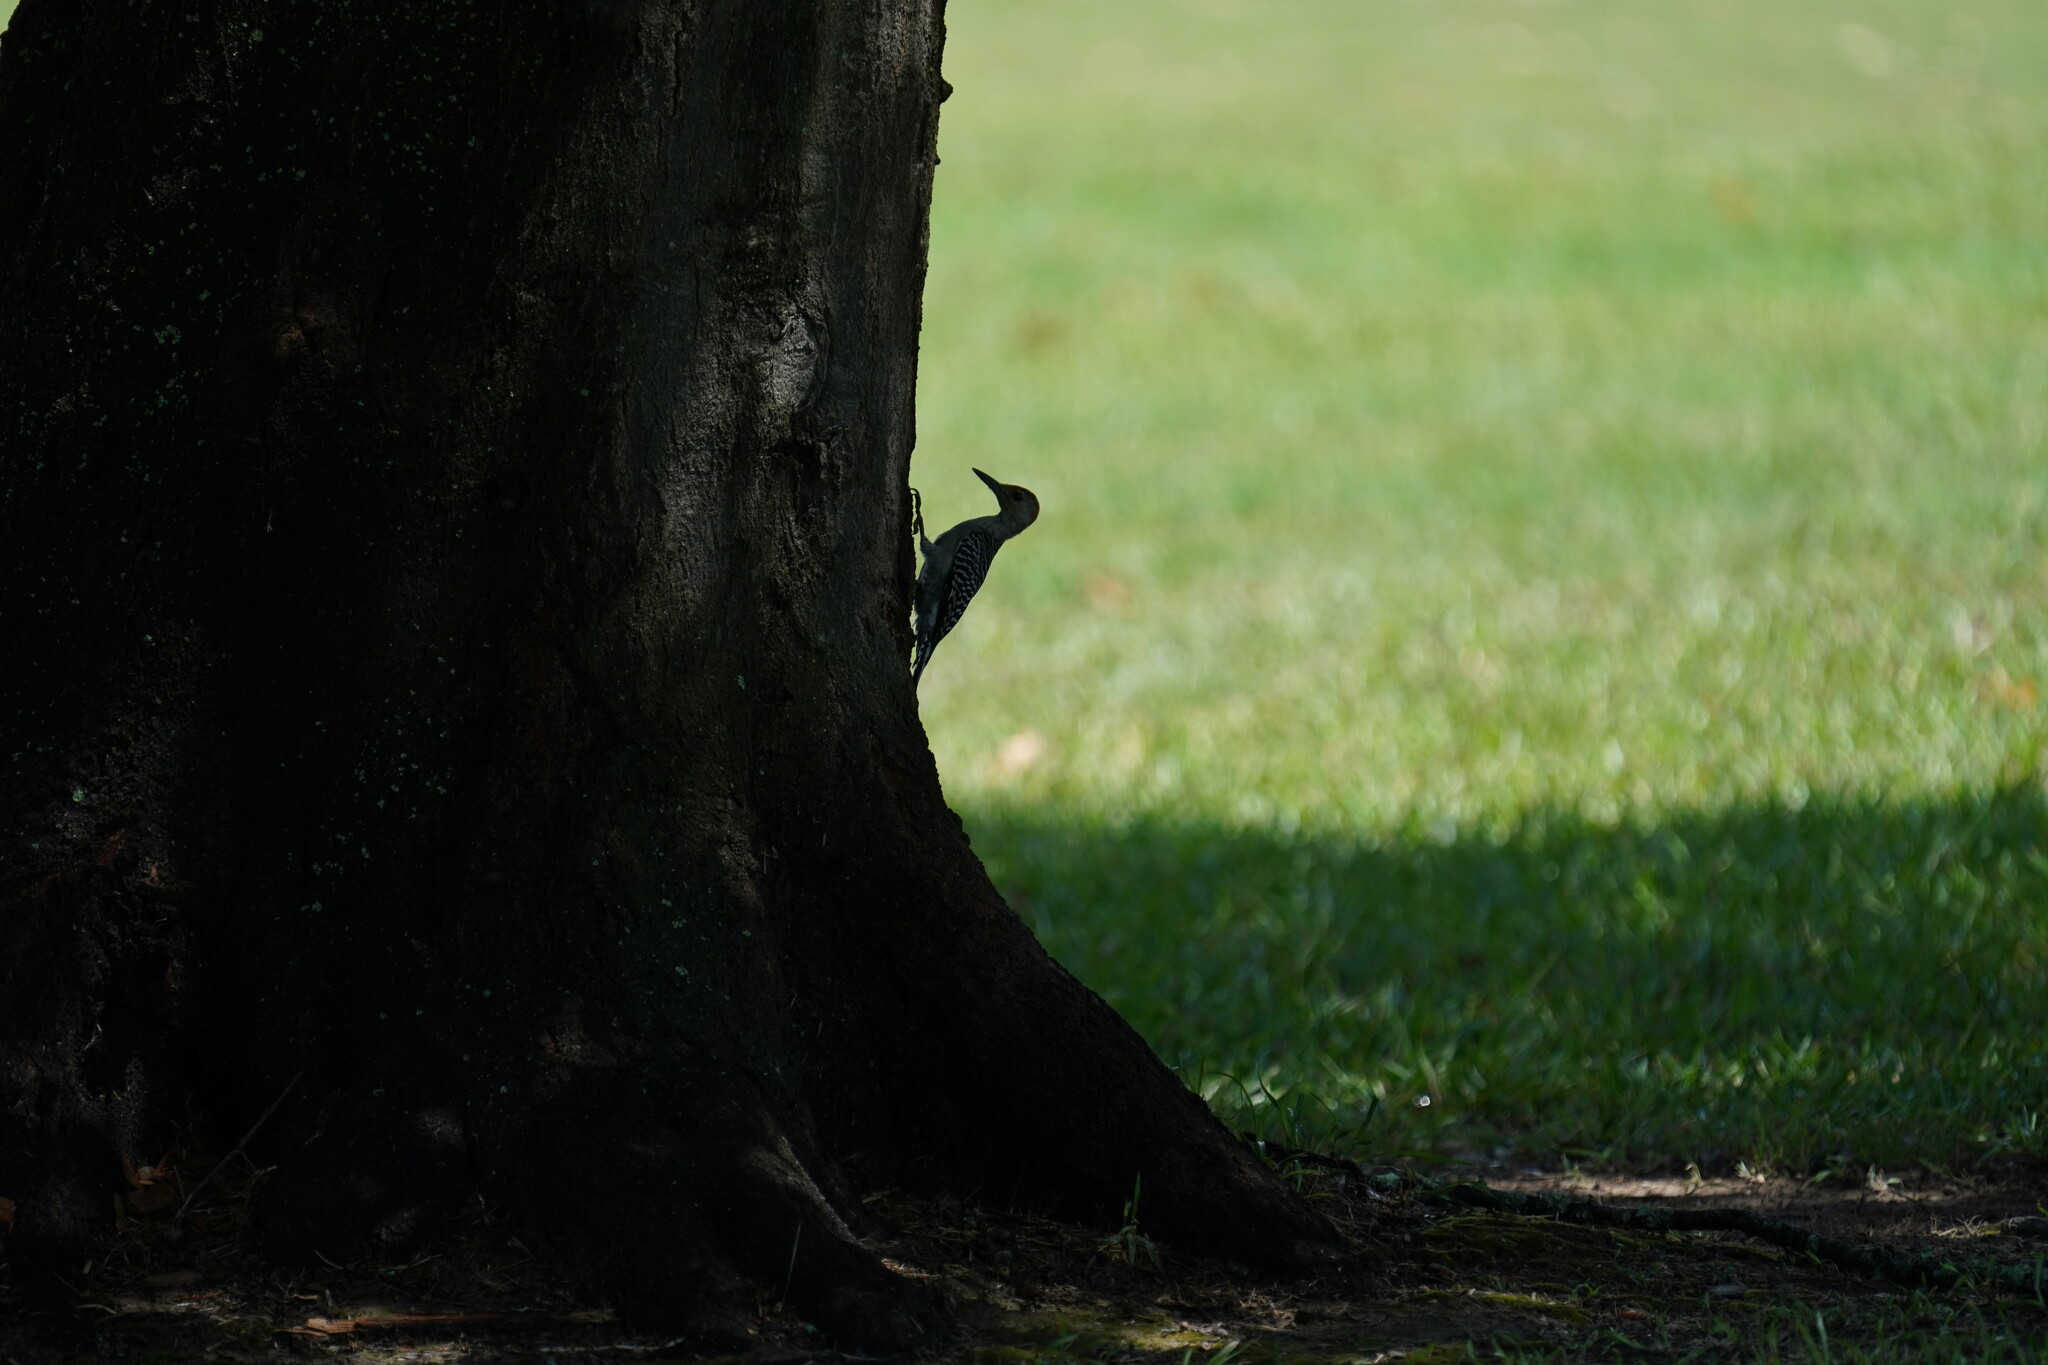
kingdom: Animalia
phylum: Chordata
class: Aves
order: Piciformes
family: Picidae
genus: Melanerpes
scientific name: Melanerpes carolinus
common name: Red-bellied woodpecker
